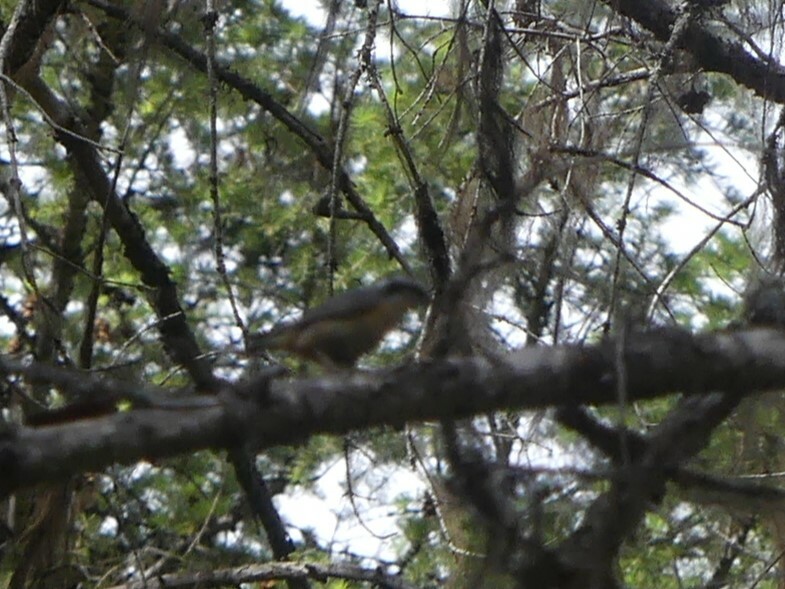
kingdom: Animalia
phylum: Chordata
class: Aves
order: Passeriformes
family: Sittidae
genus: Sitta
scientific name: Sitta canadensis
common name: Red-breasted nuthatch
